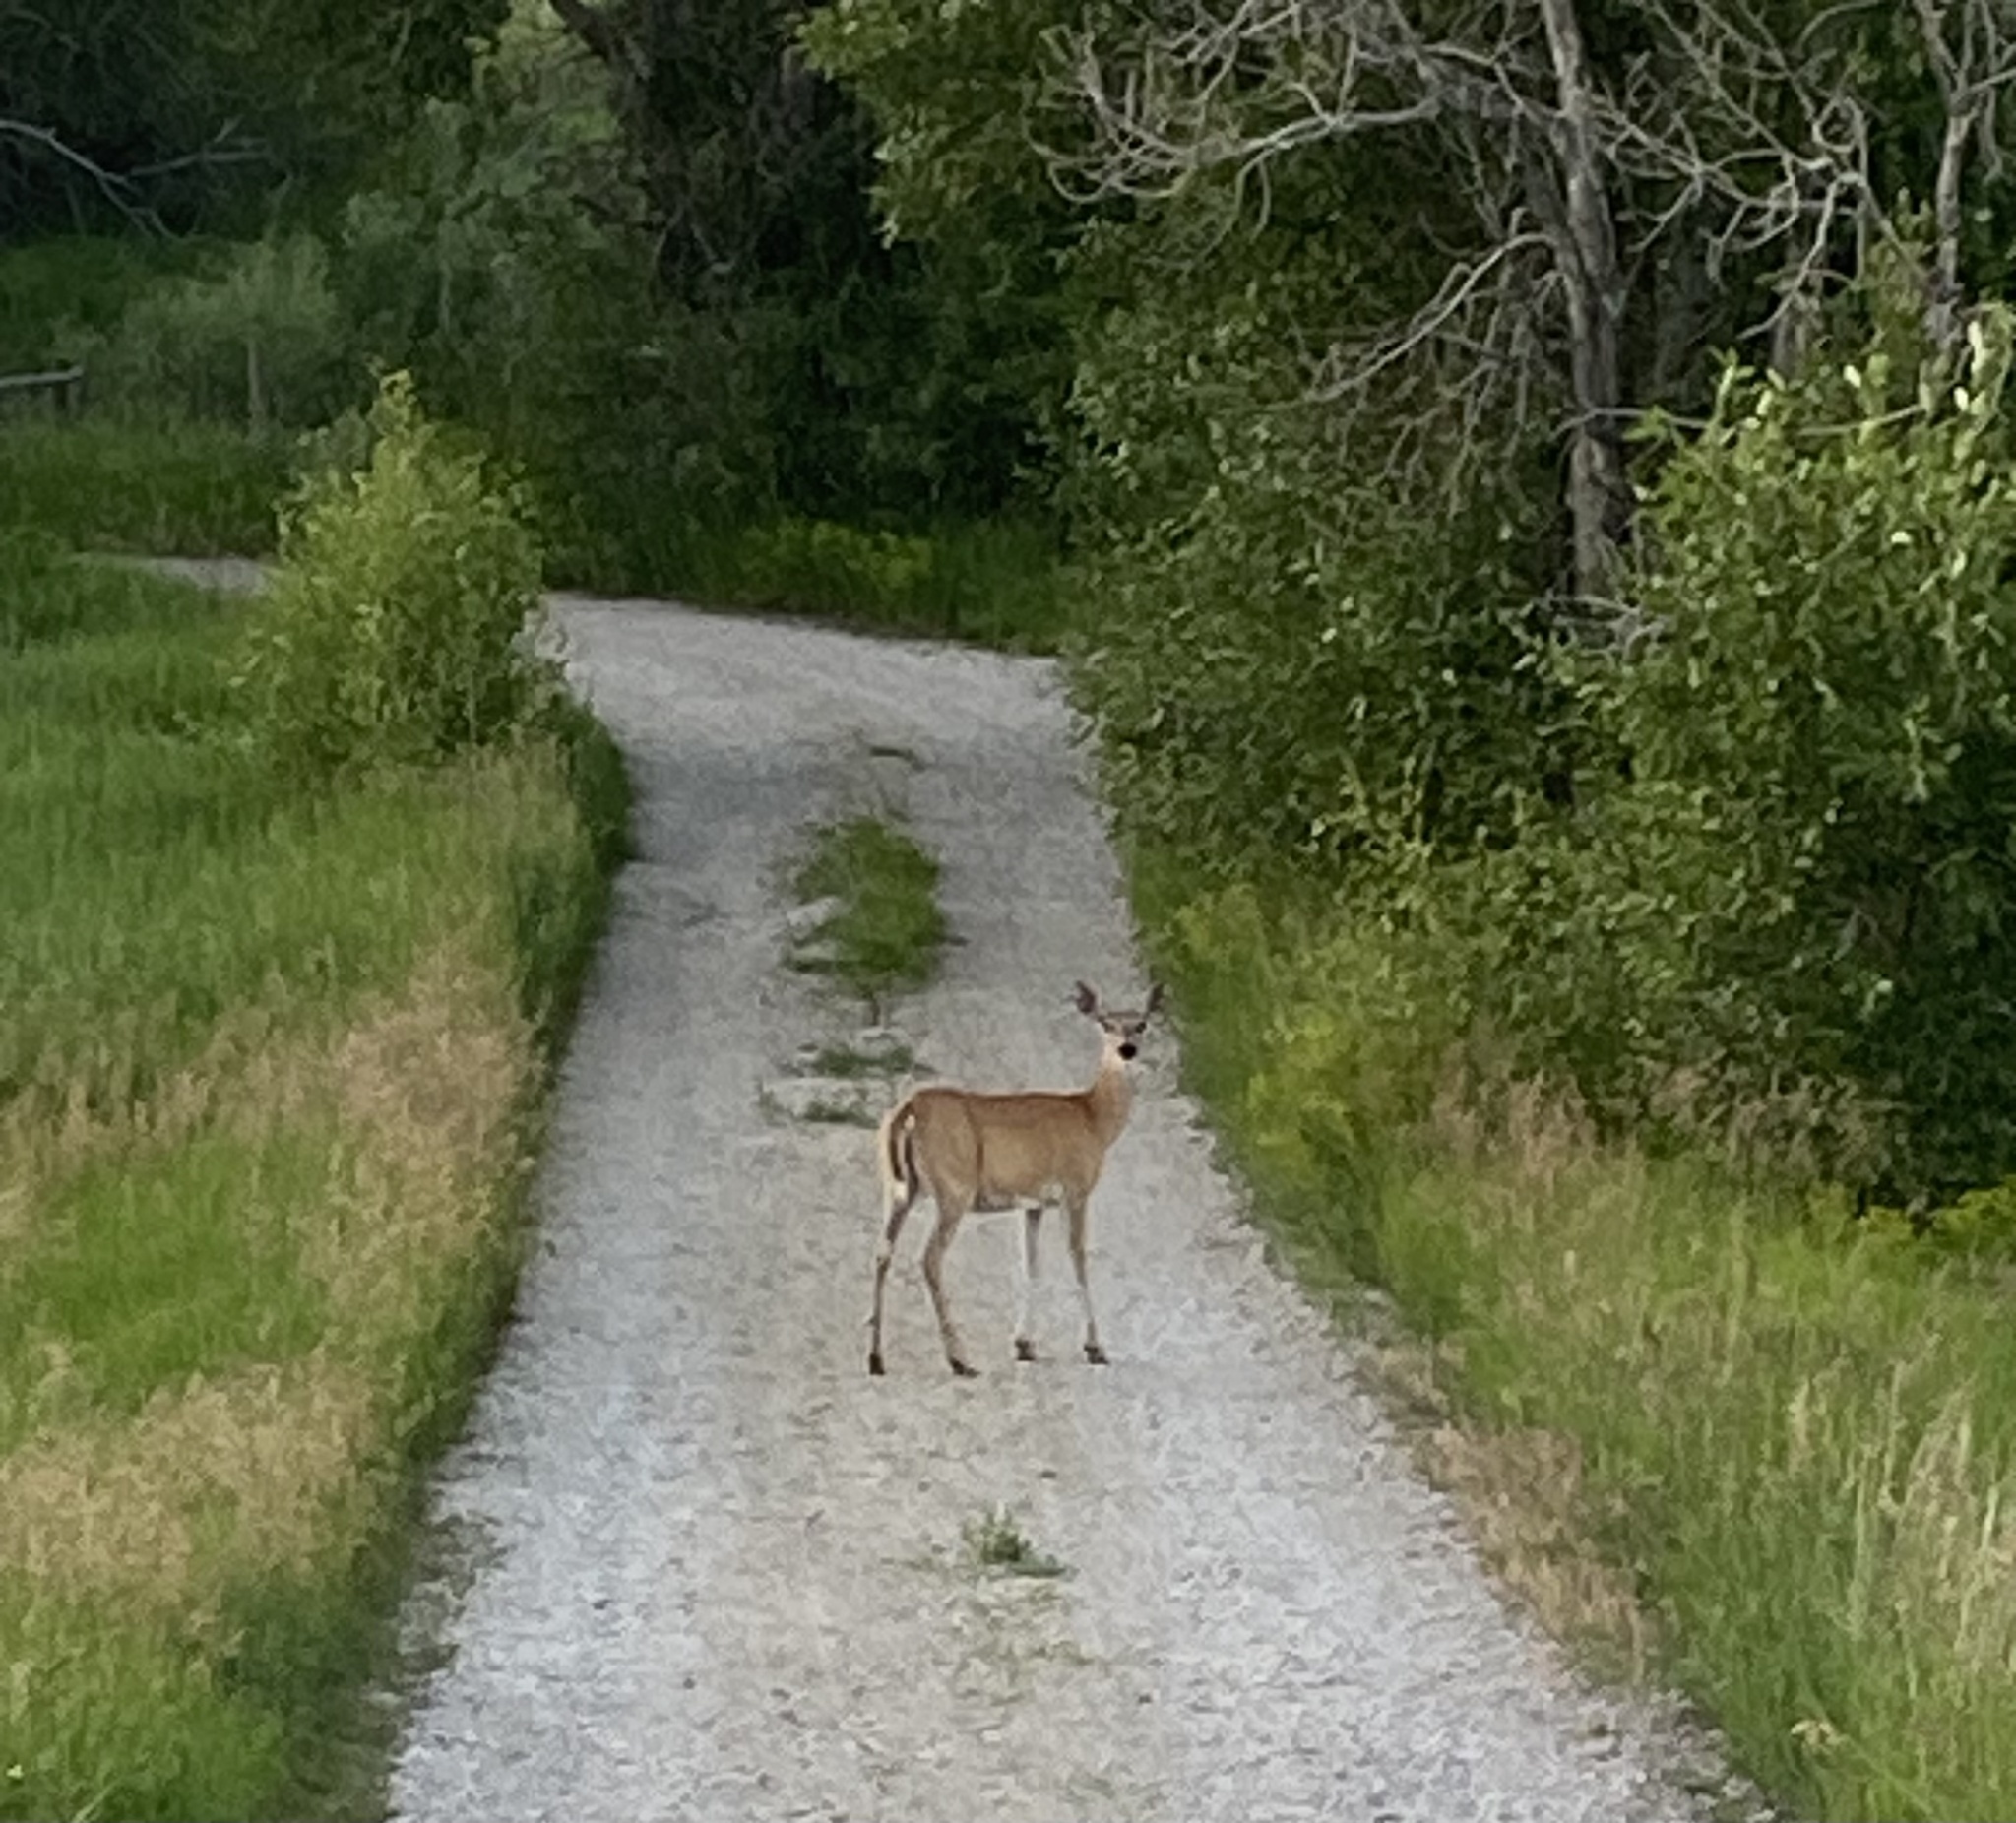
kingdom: Animalia
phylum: Chordata
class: Mammalia
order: Artiodactyla
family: Cervidae
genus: Odocoileus
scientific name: Odocoileus virginianus
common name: White-tailed deer
